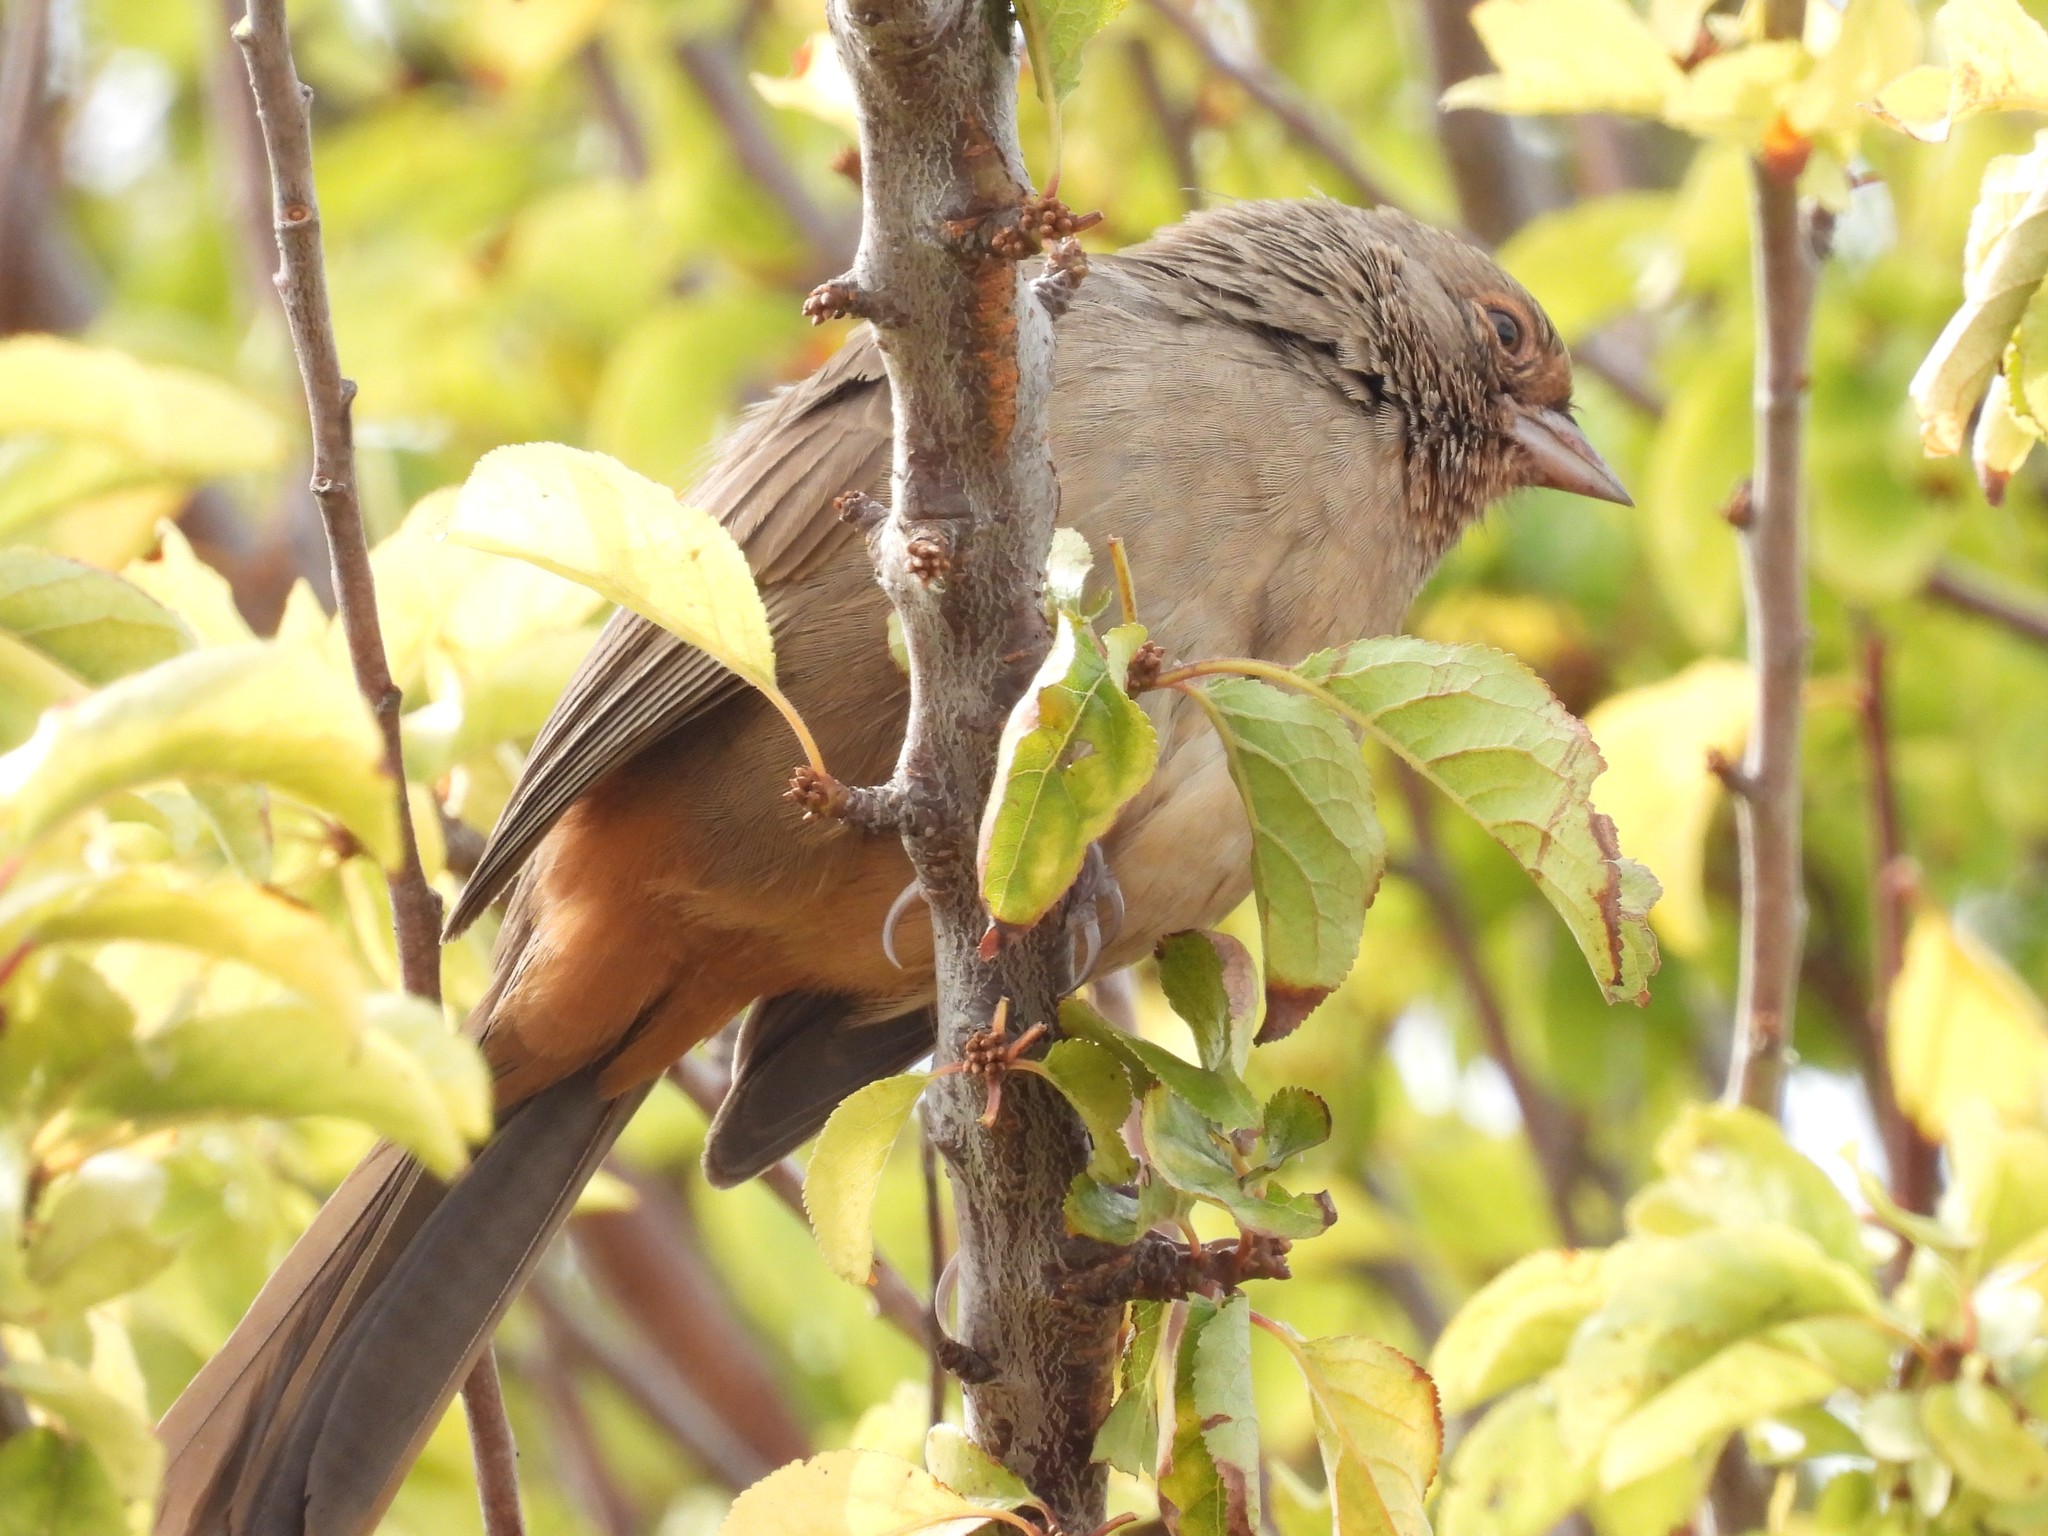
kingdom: Animalia
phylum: Chordata
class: Aves
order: Passeriformes
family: Passerellidae
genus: Melozone
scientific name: Melozone crissalis
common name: California towhee
